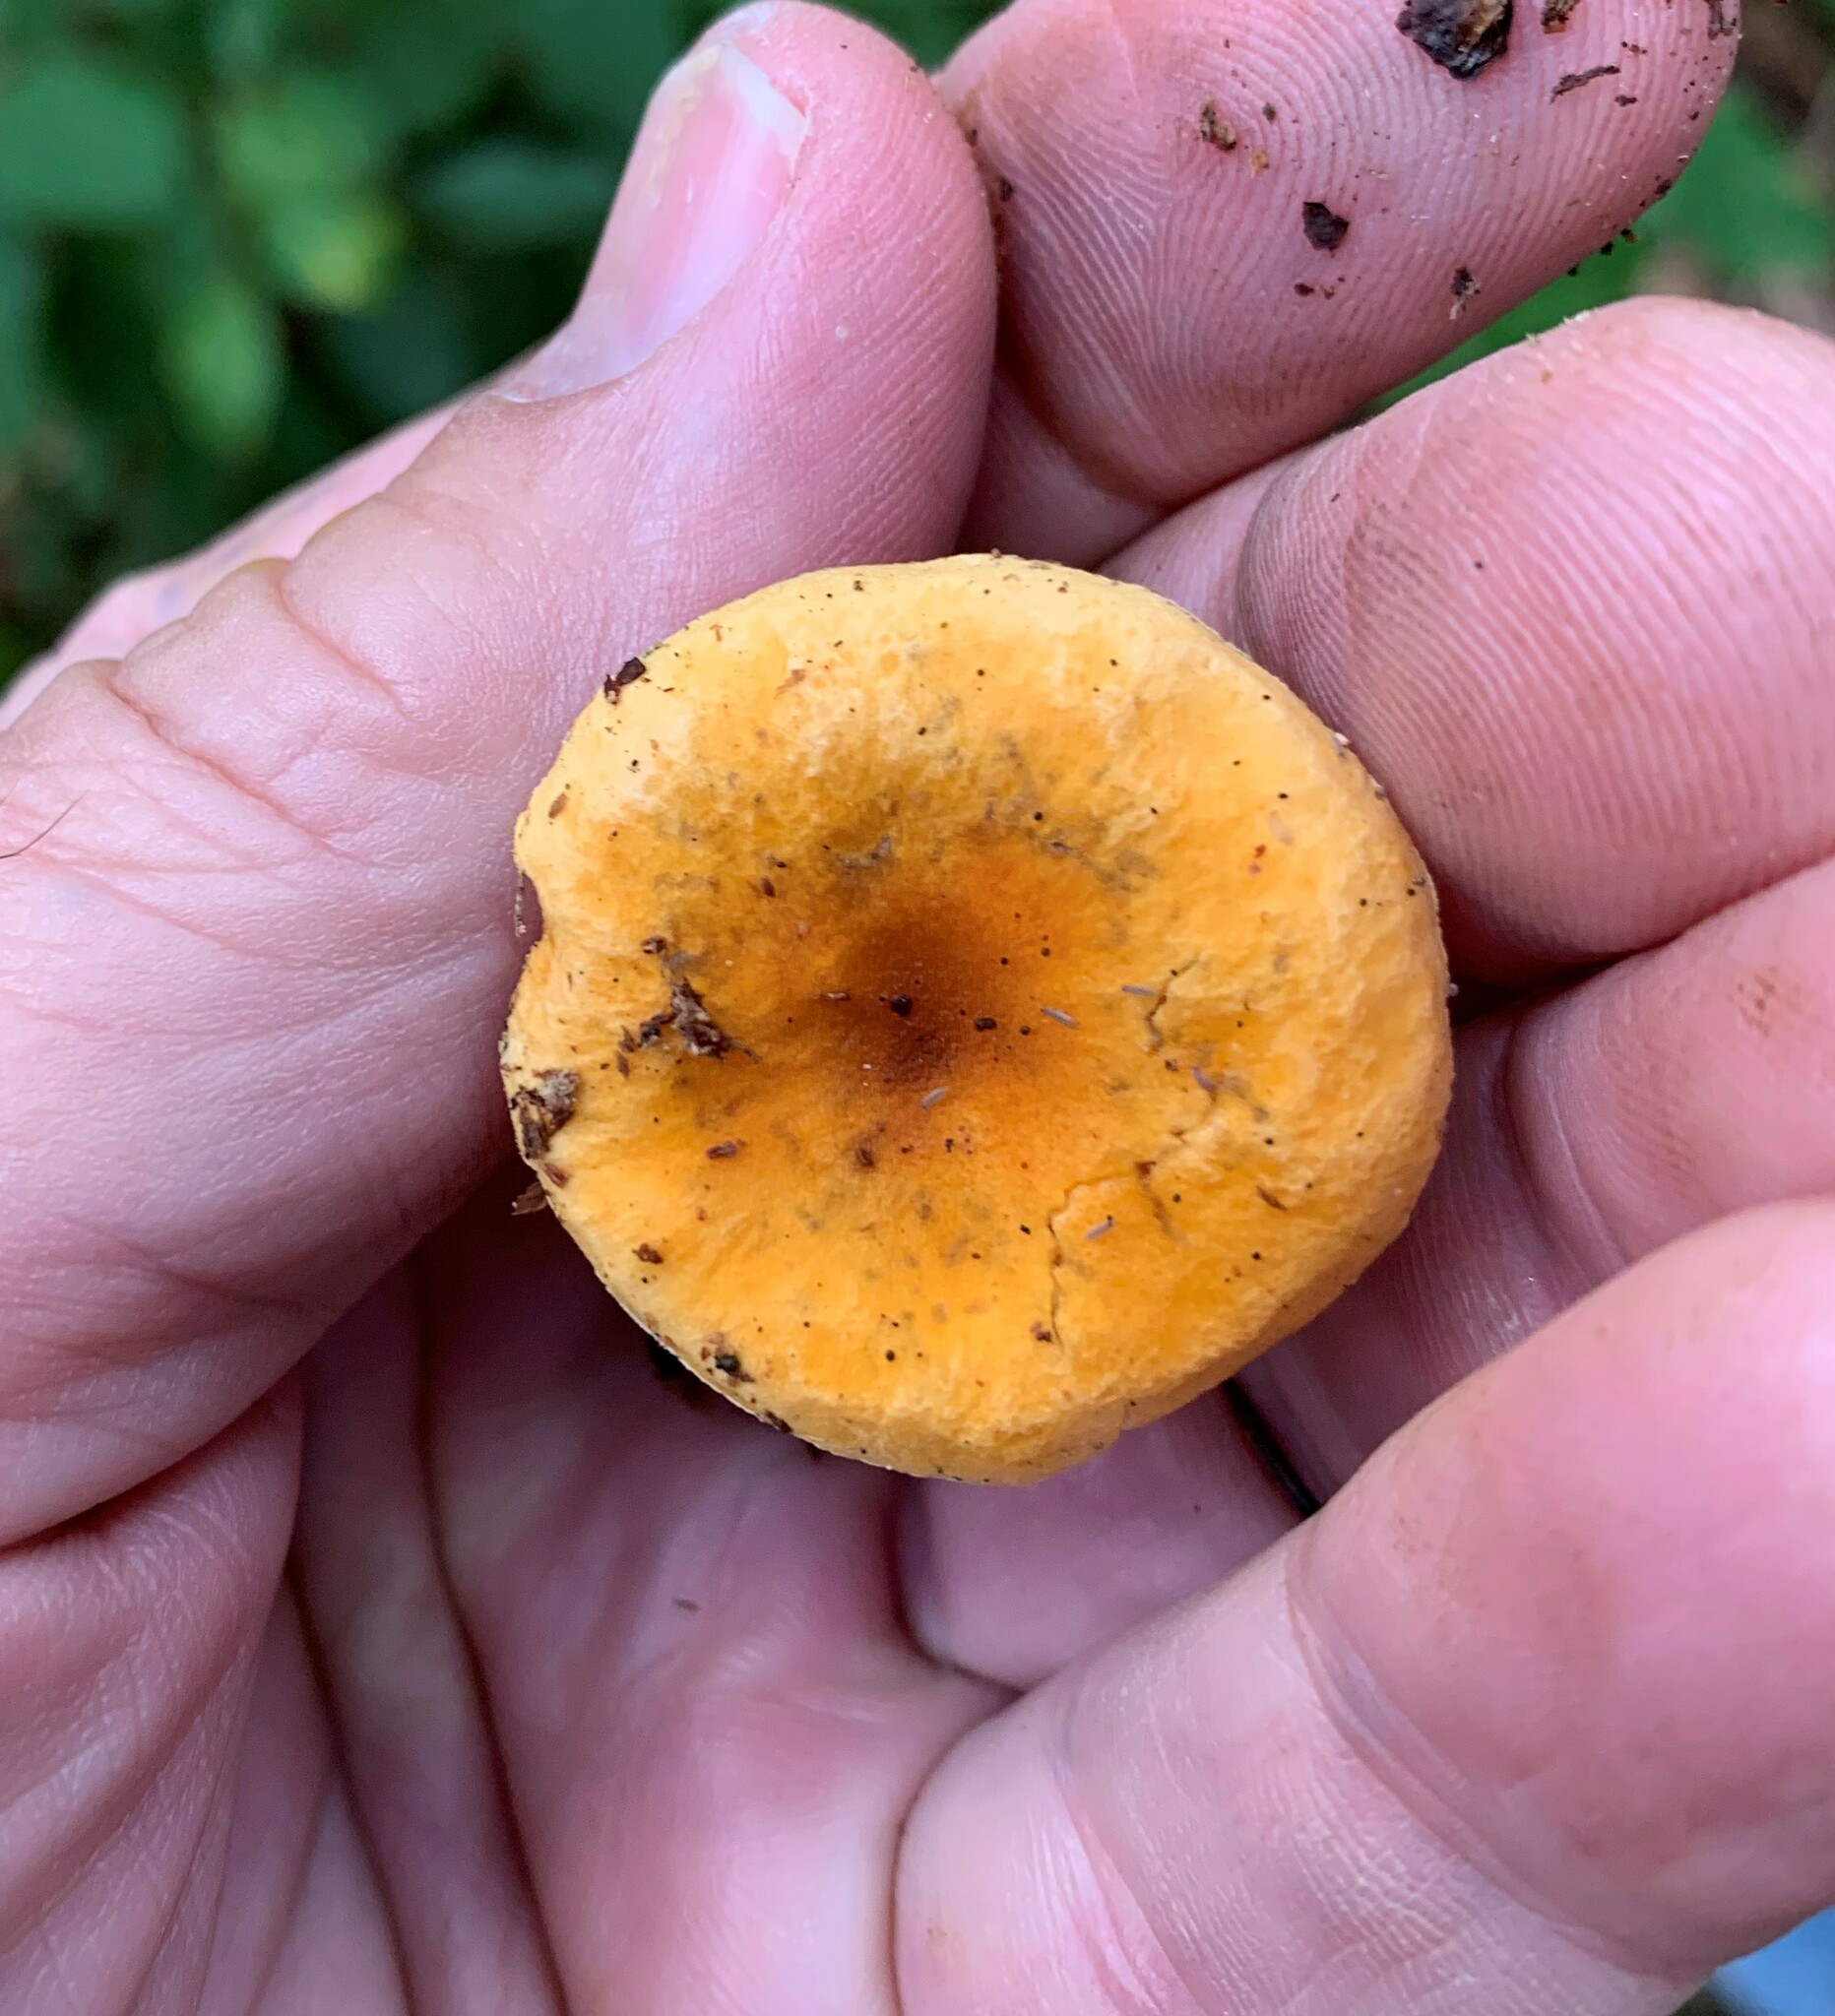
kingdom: Fungi
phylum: Basidiomycota
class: Agaricomycetes
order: Boletales
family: Hygrophoropsidaceae
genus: Hygrophoropsis
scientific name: Hygrophoropsis aurantiaca
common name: False chanterelle
